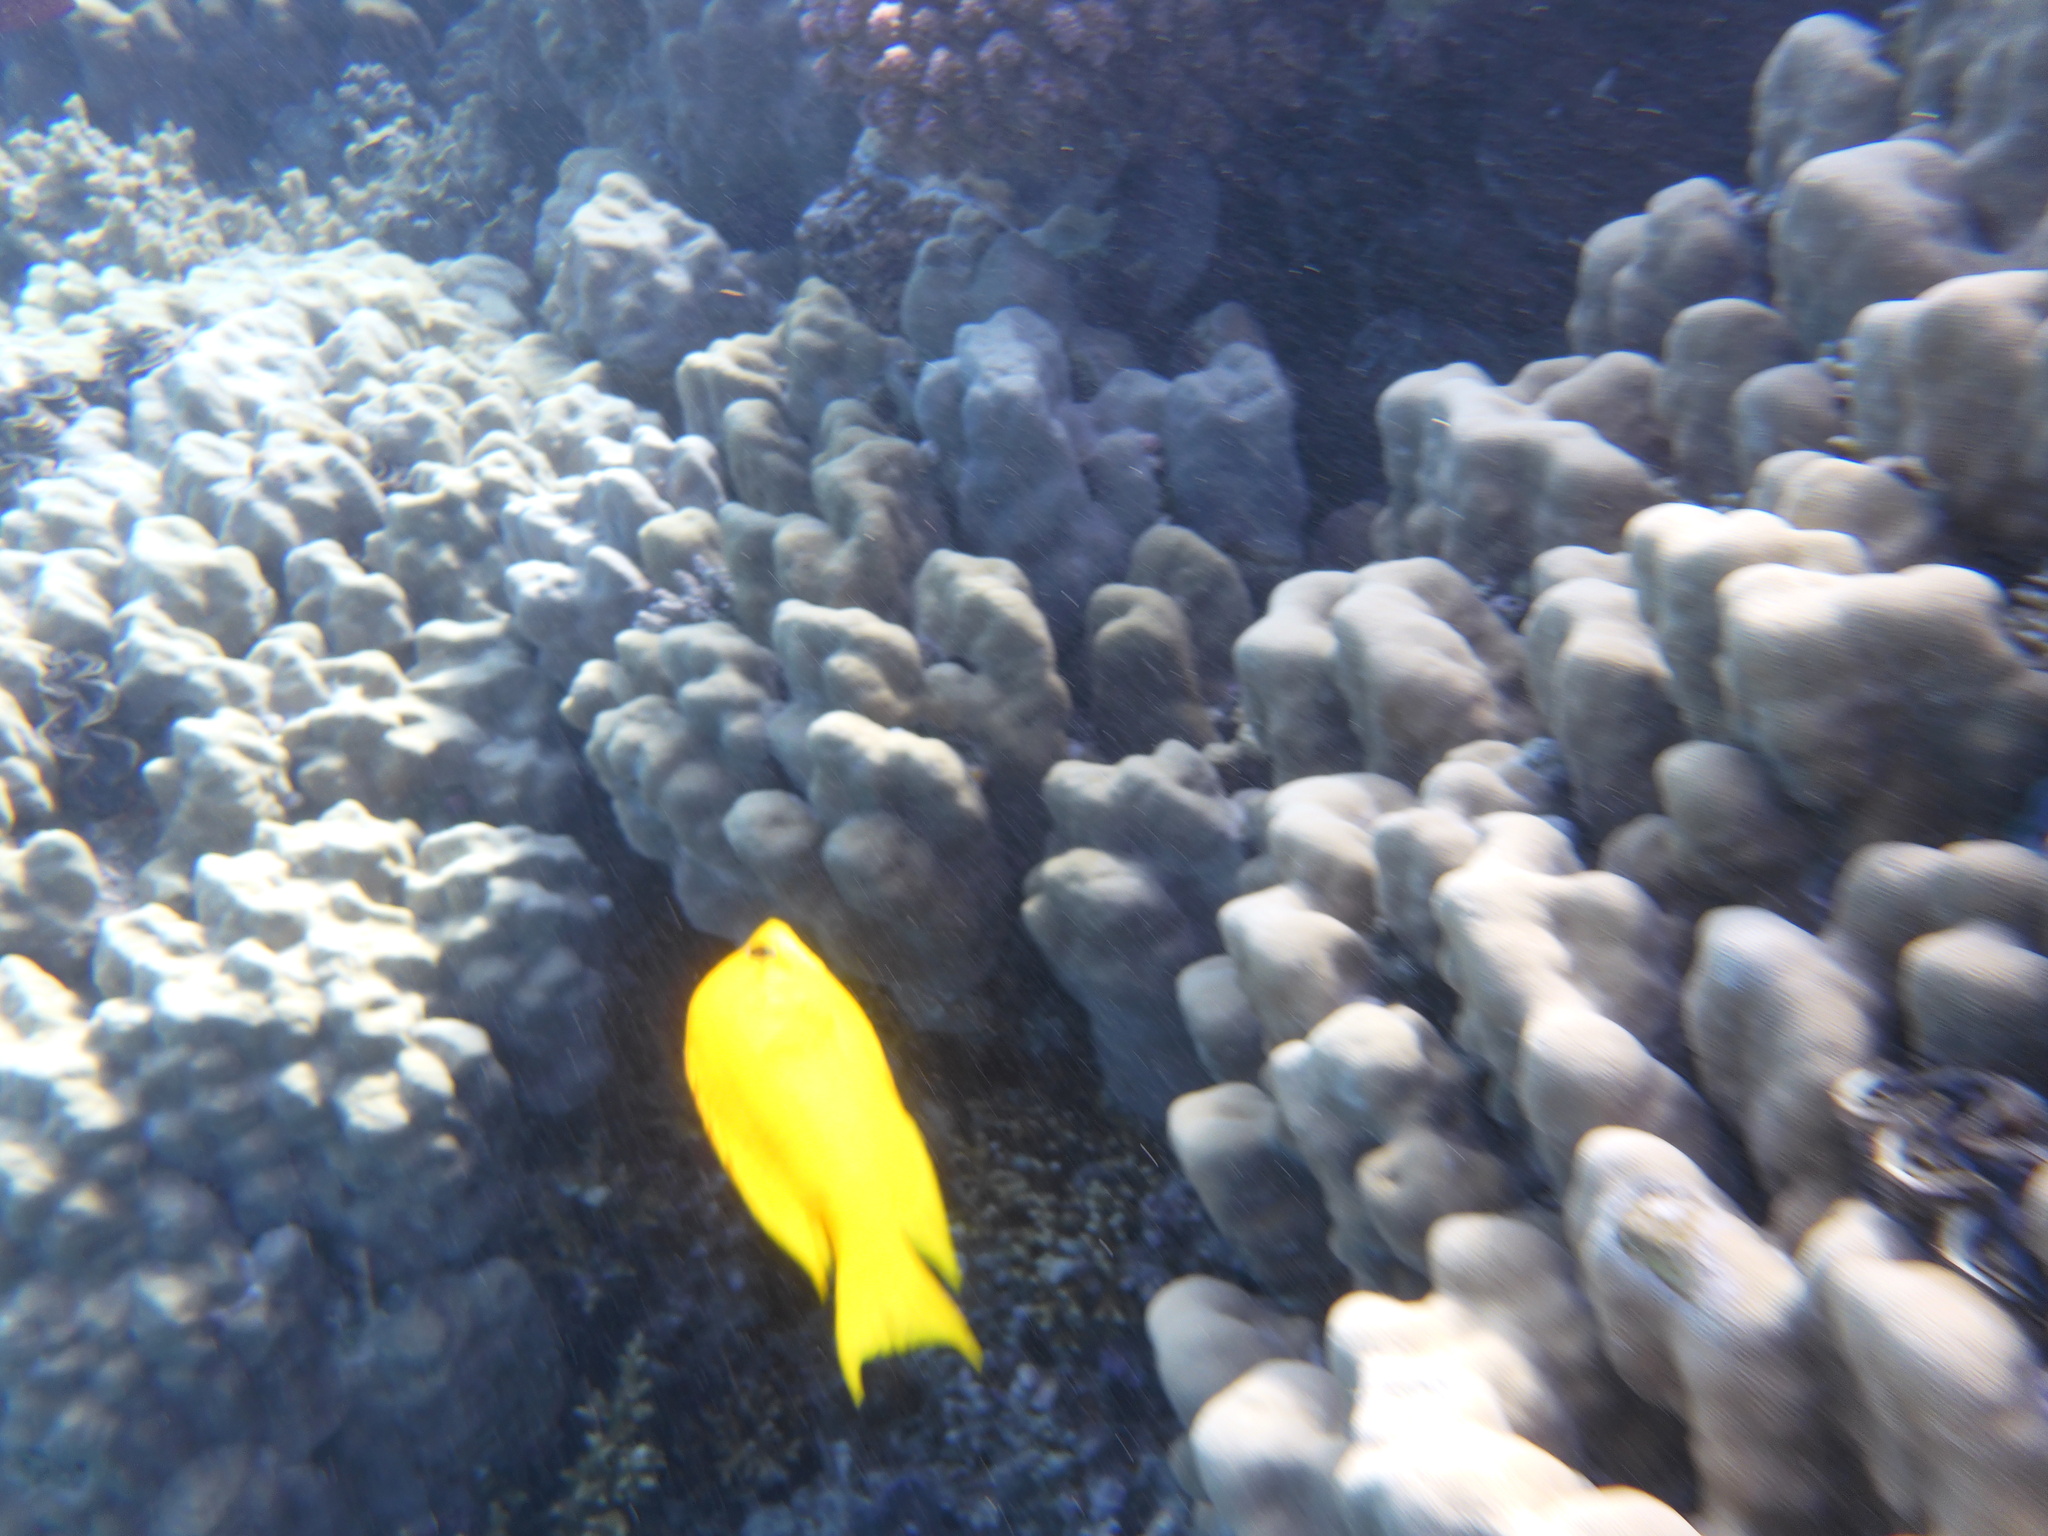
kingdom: Animalia
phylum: Chordata
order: Perciformes
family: Labridae
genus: Epibulus
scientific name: Epibulus insidiator
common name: Slingjaw wrasse
